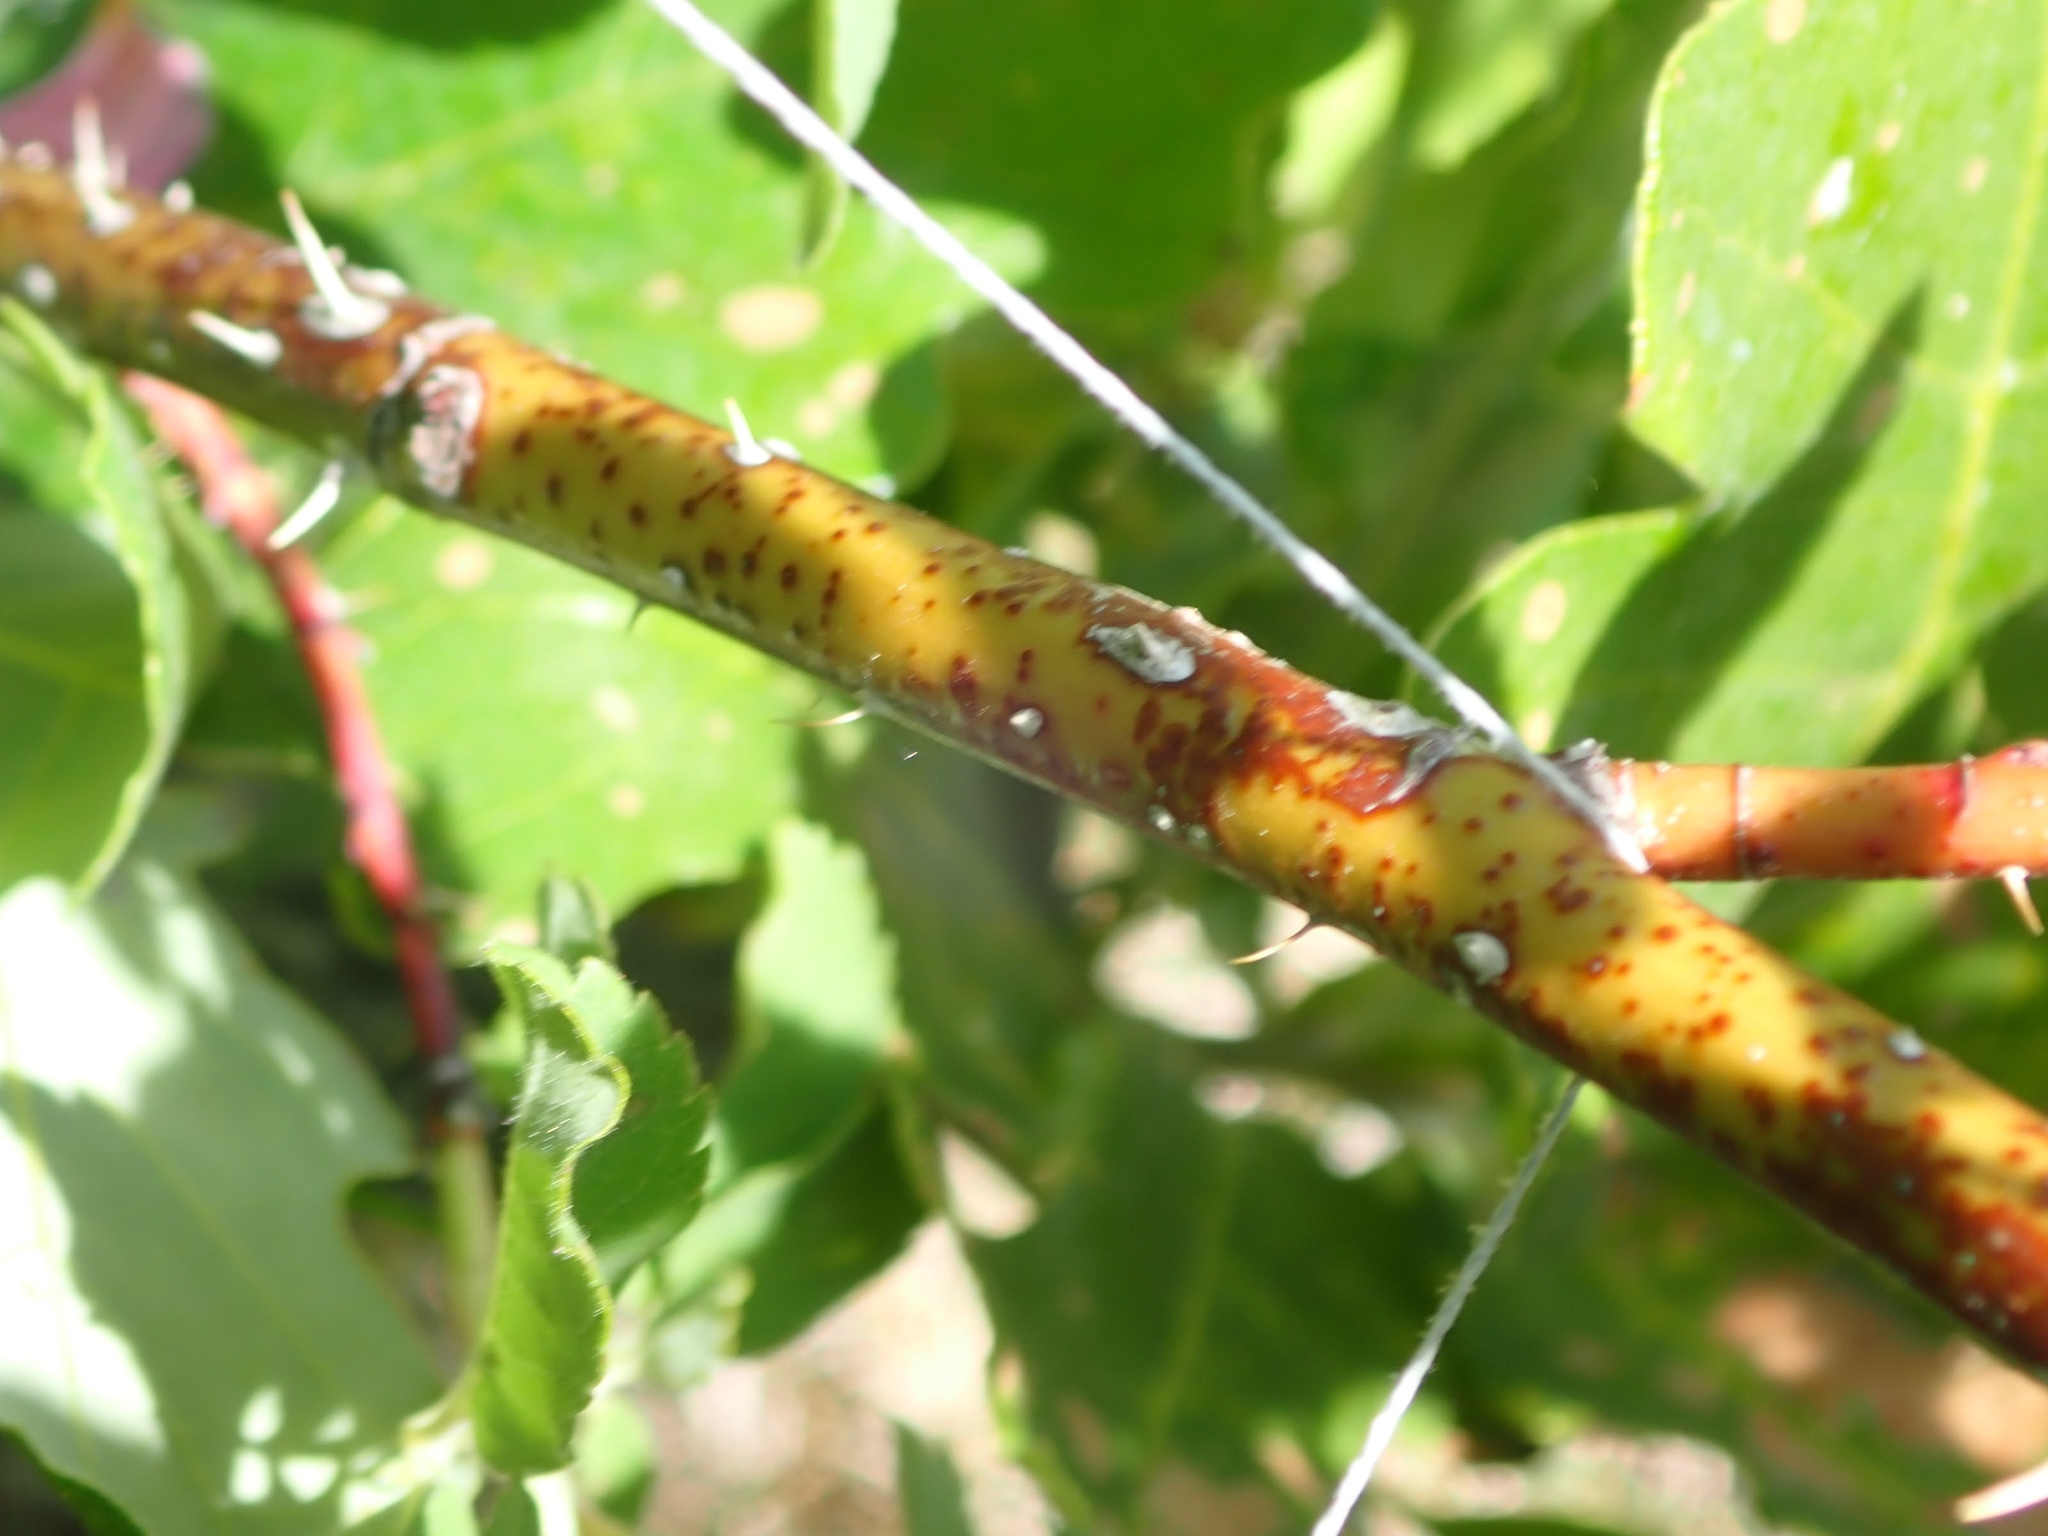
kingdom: Plantae
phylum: Tracheophyta
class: Magnoliopsida
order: Rosales
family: Rosaceae
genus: Rosa
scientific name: Rosa woodsii
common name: Woods's rose
